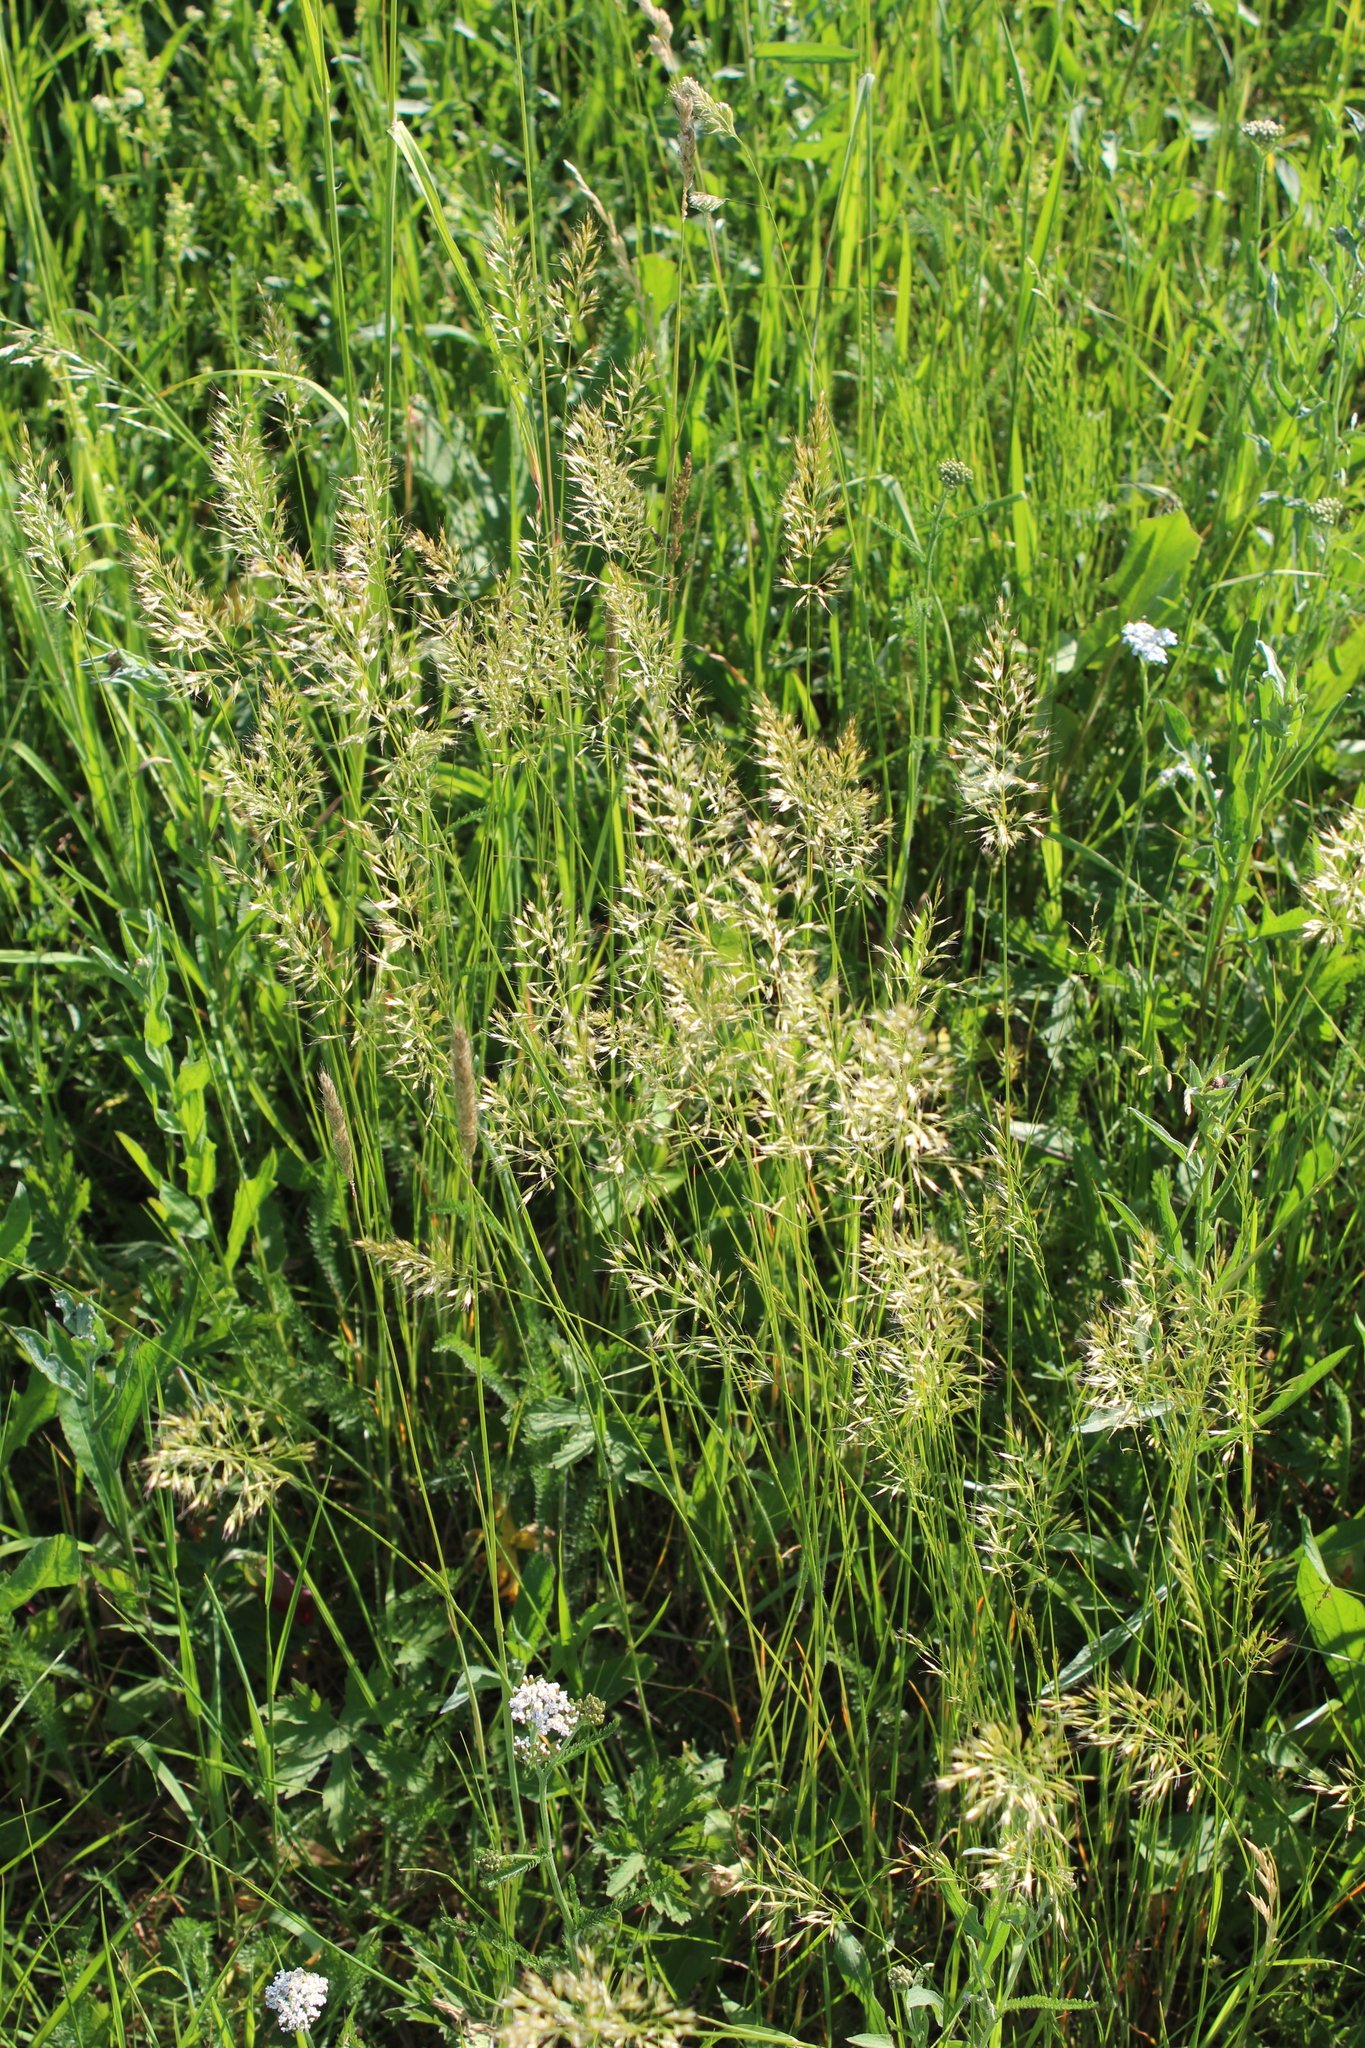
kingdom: Plantae
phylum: Tracheophyta
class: Liliopsida
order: Poales
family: Poaceae
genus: Trisetum
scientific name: Trisetum flavescens
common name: Yellow oat-grass
